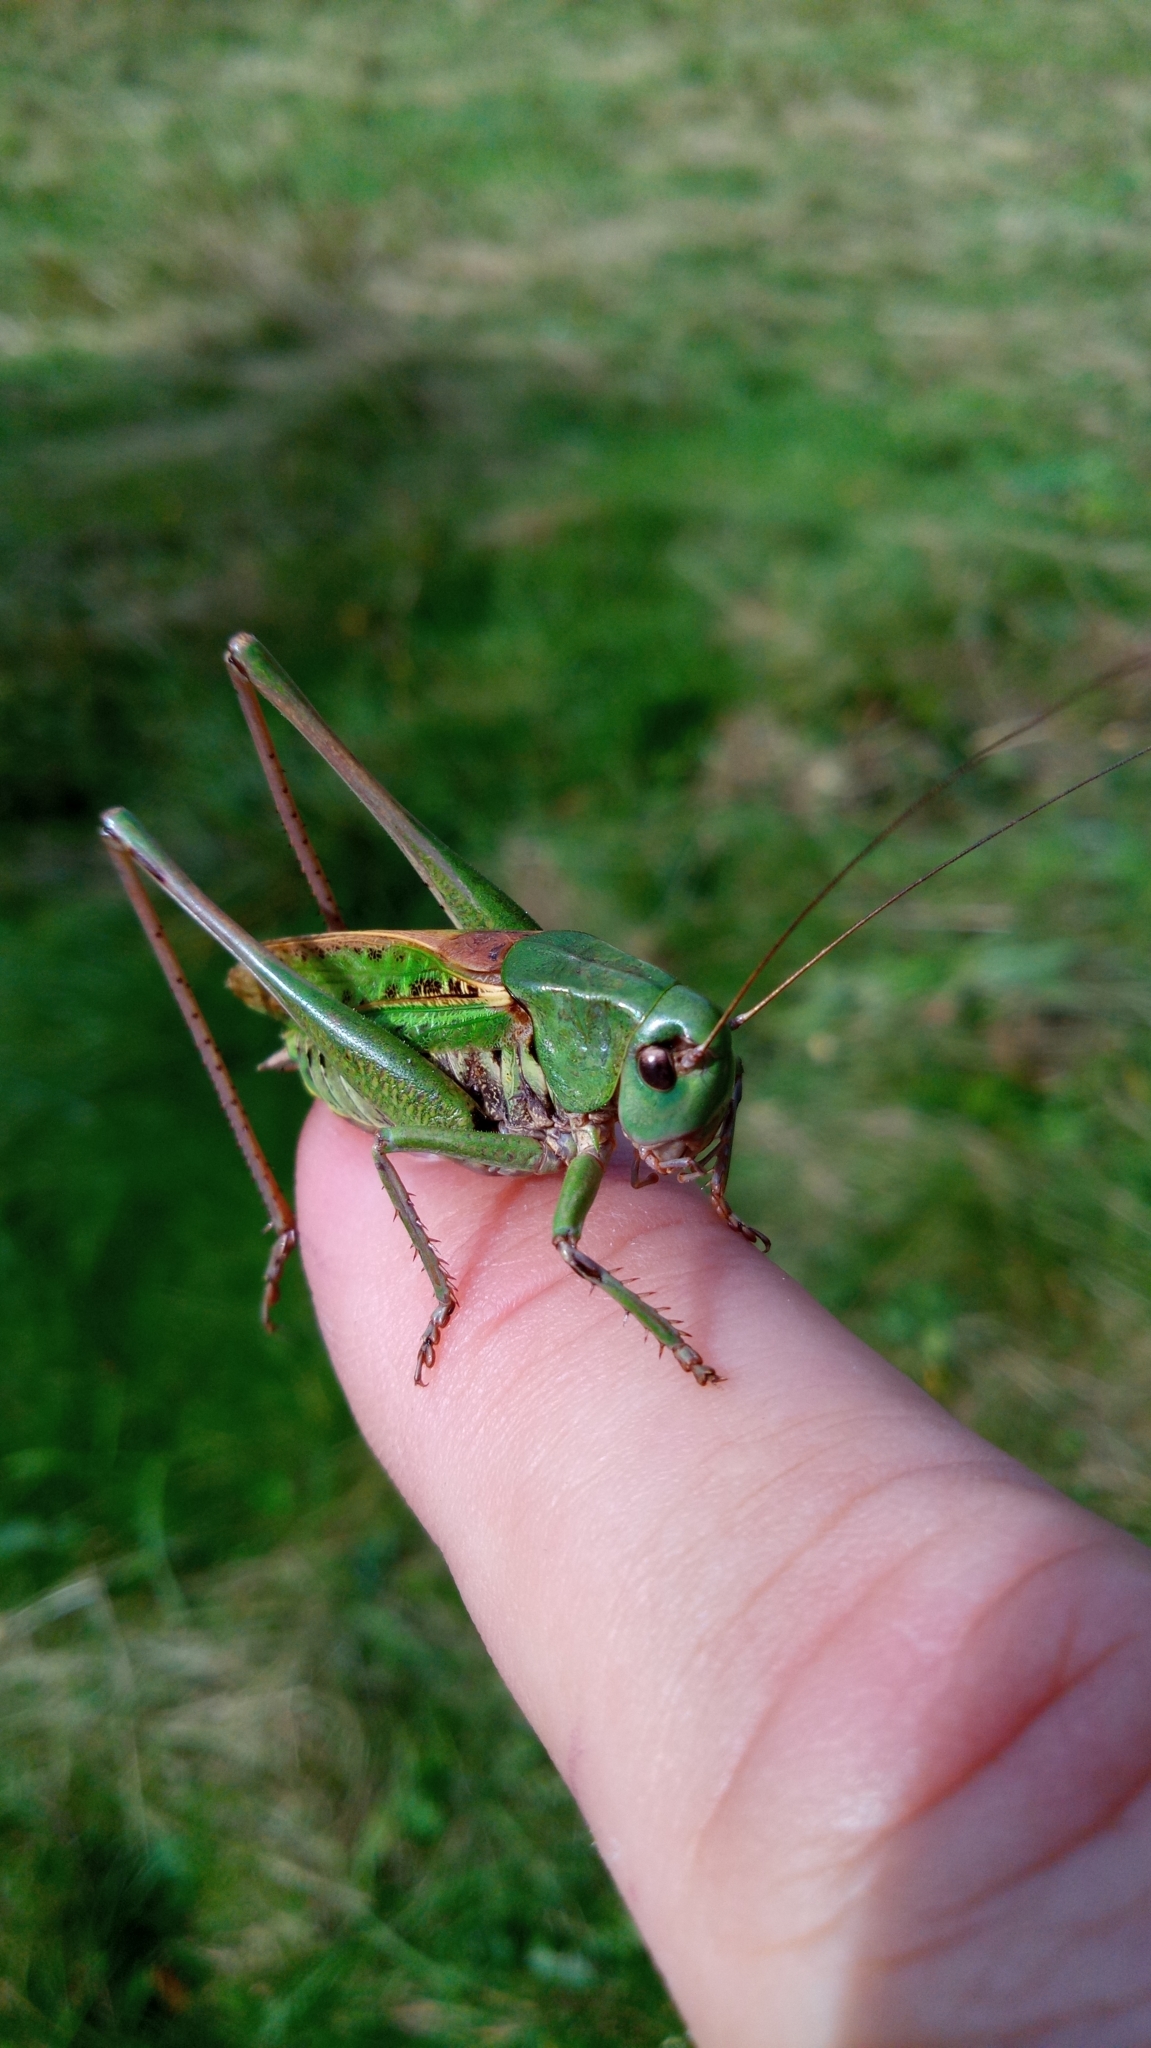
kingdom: Animalia
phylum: Arthropoda
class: Insecta
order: Orthoptera
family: Tettigoniidae
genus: Decticus
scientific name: Decticus verrucivorus
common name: Wart-biter
